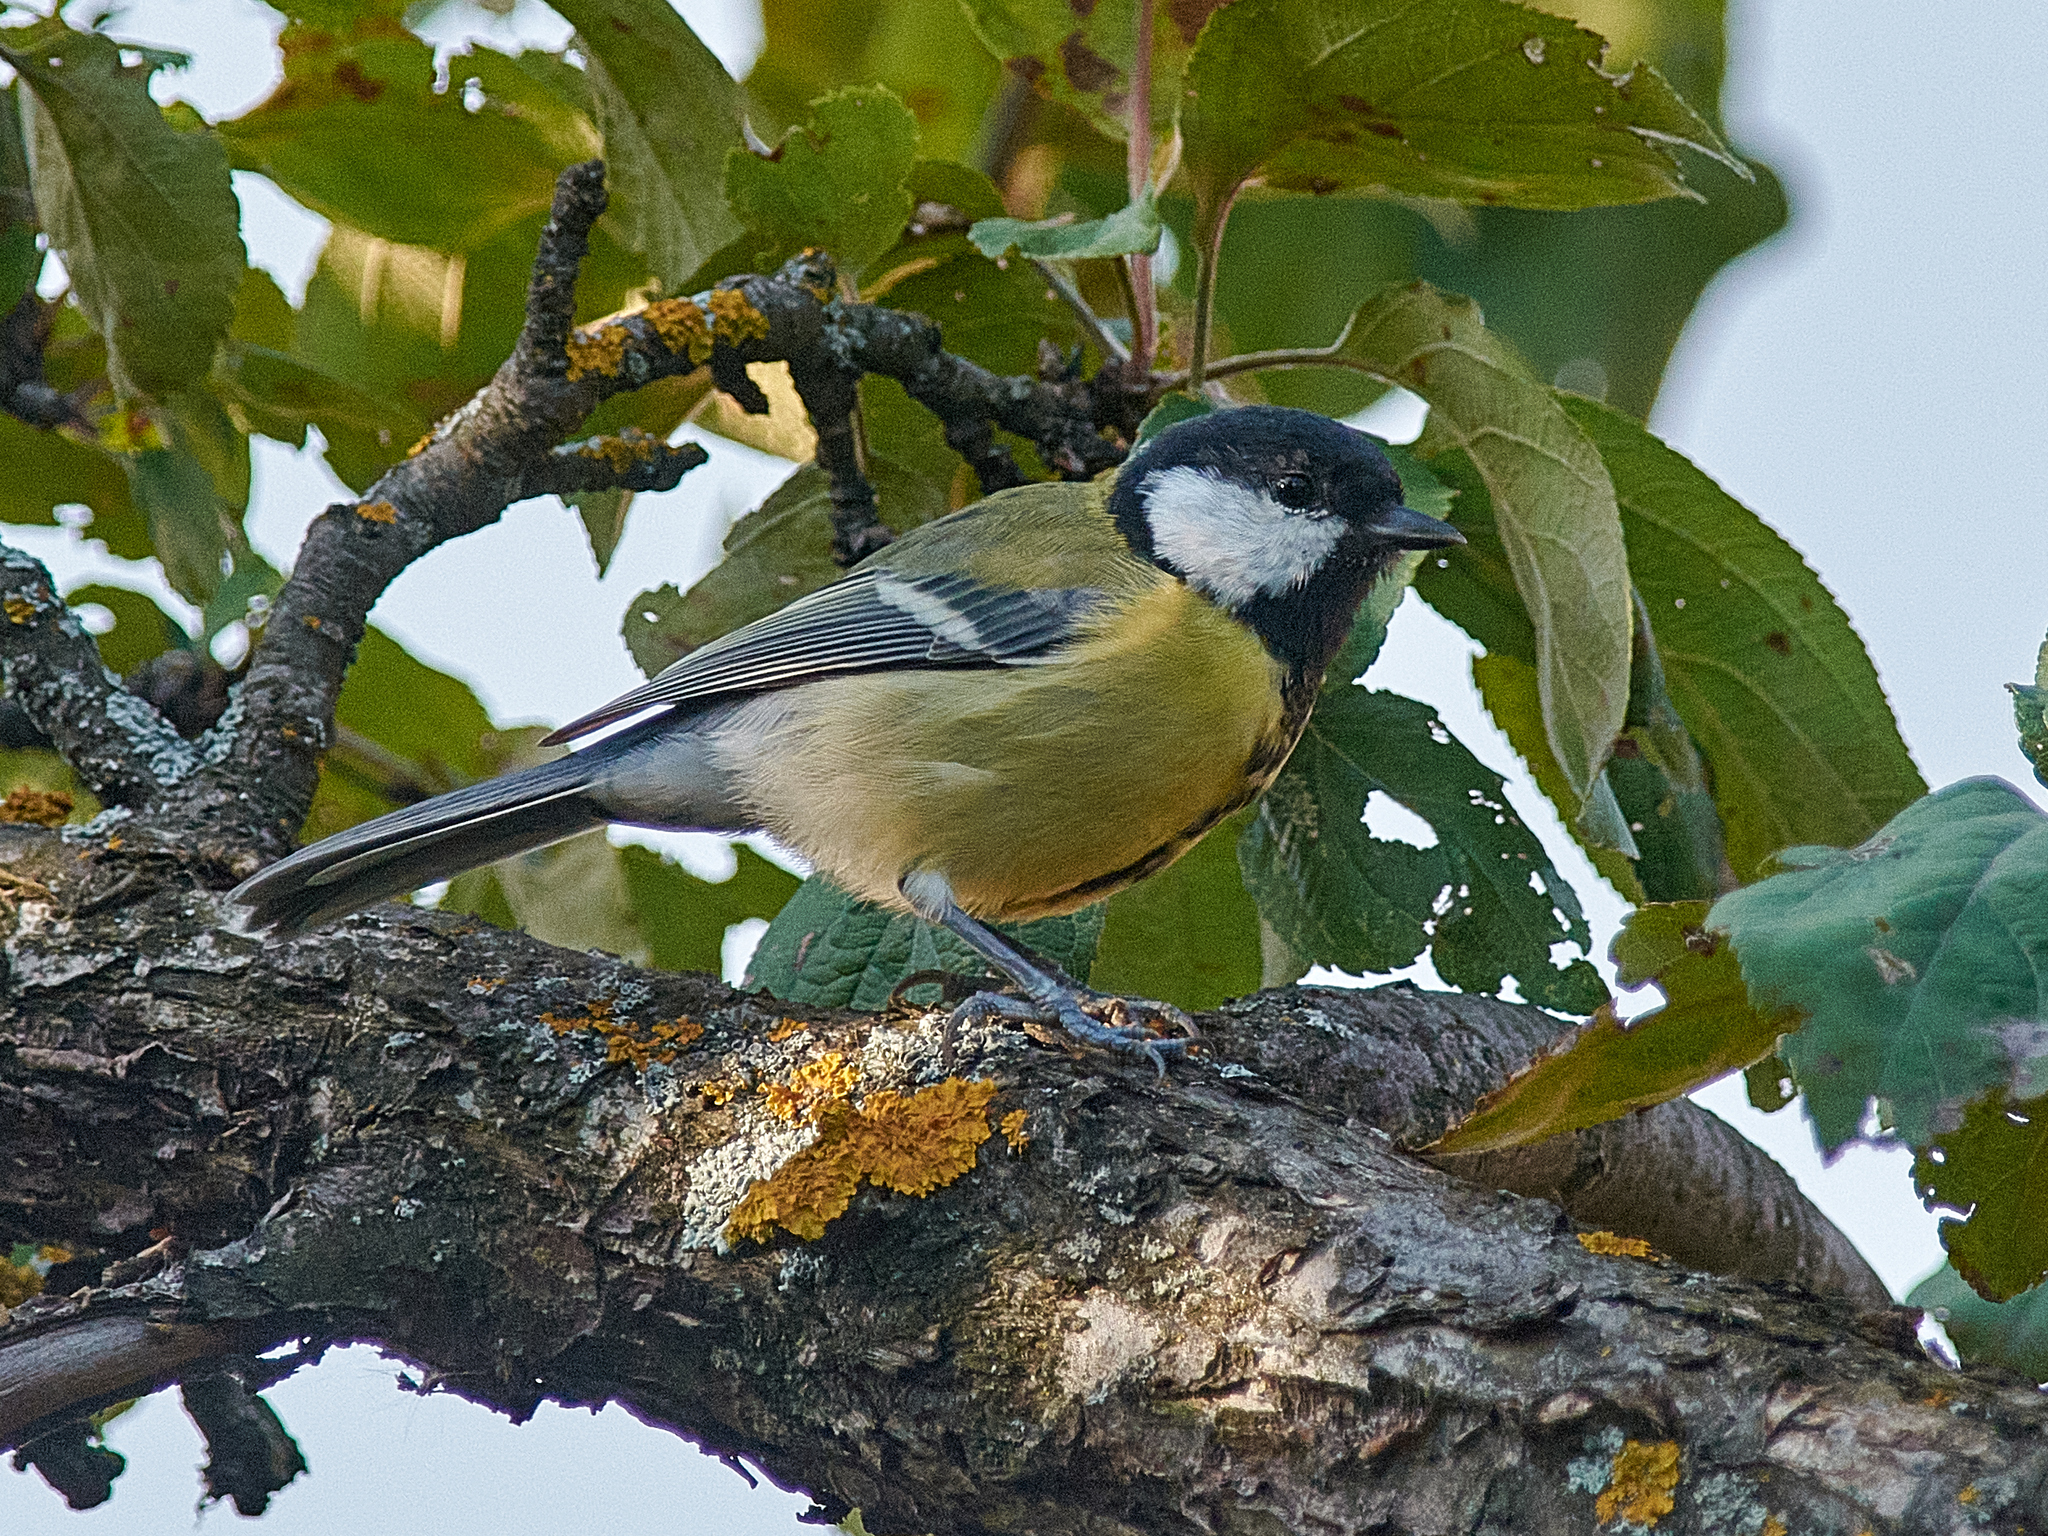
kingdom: Animalia
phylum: Chordata
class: Aves
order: Passeriformes
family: Paridae
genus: Parus
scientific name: Parus major
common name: Great tit
